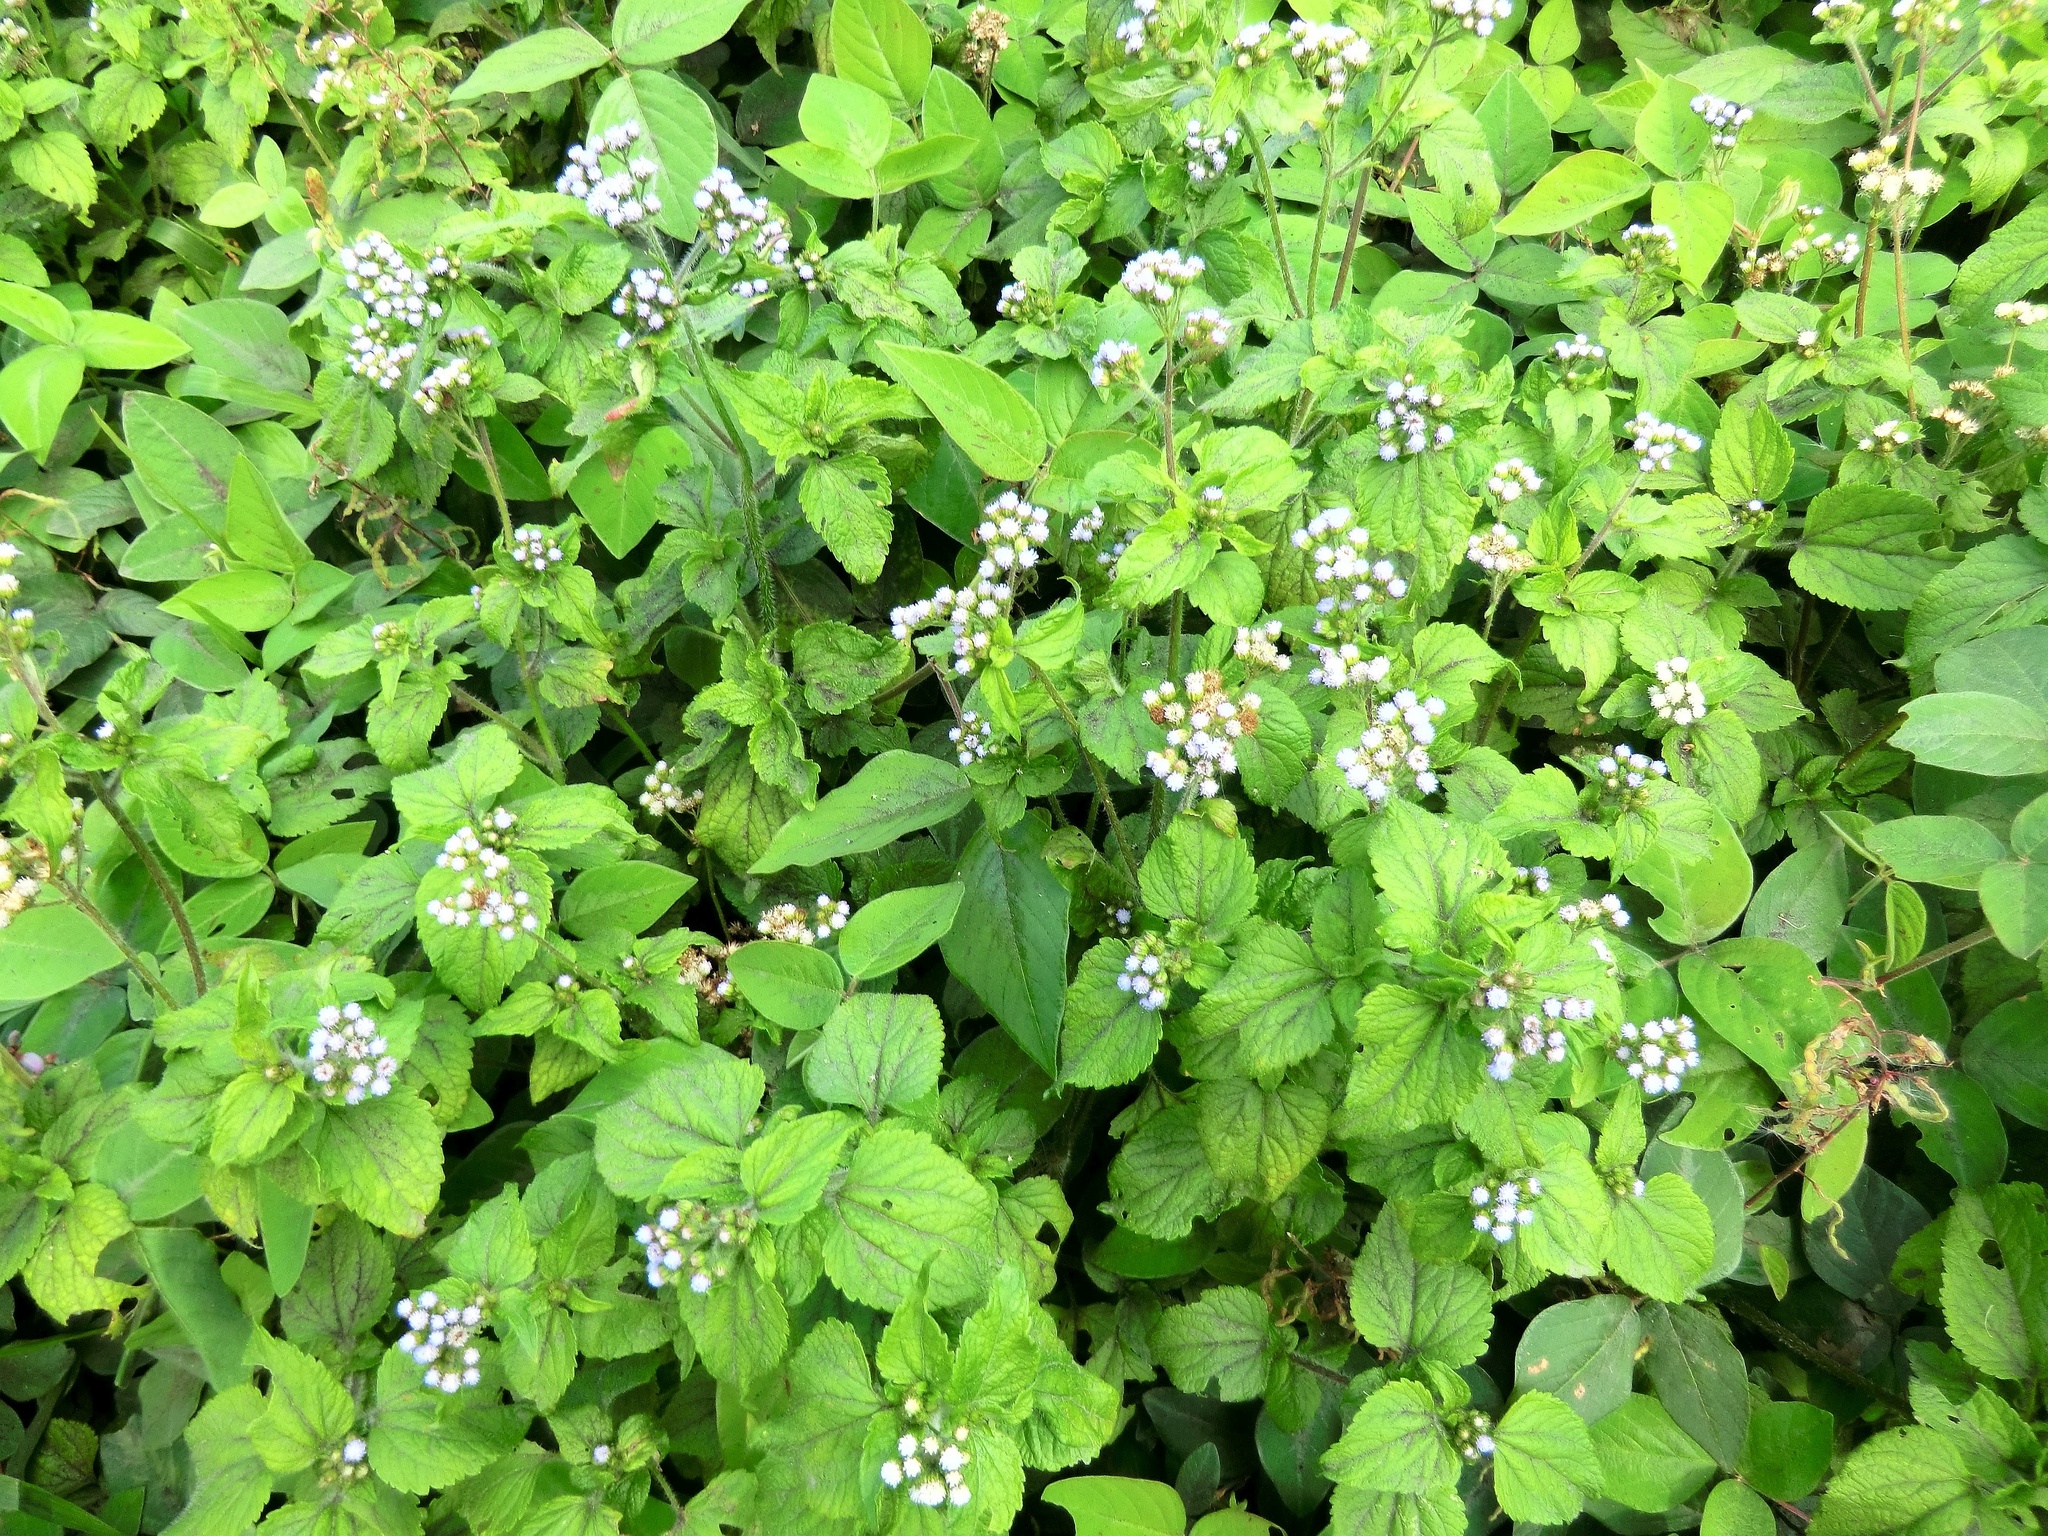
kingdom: Plantae
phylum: Tracheophyta
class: Magnoliopsida
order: Asterales
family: Asteraceae
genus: Ageratum
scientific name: Ageratum conyzoides
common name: Tropical whiteweed
